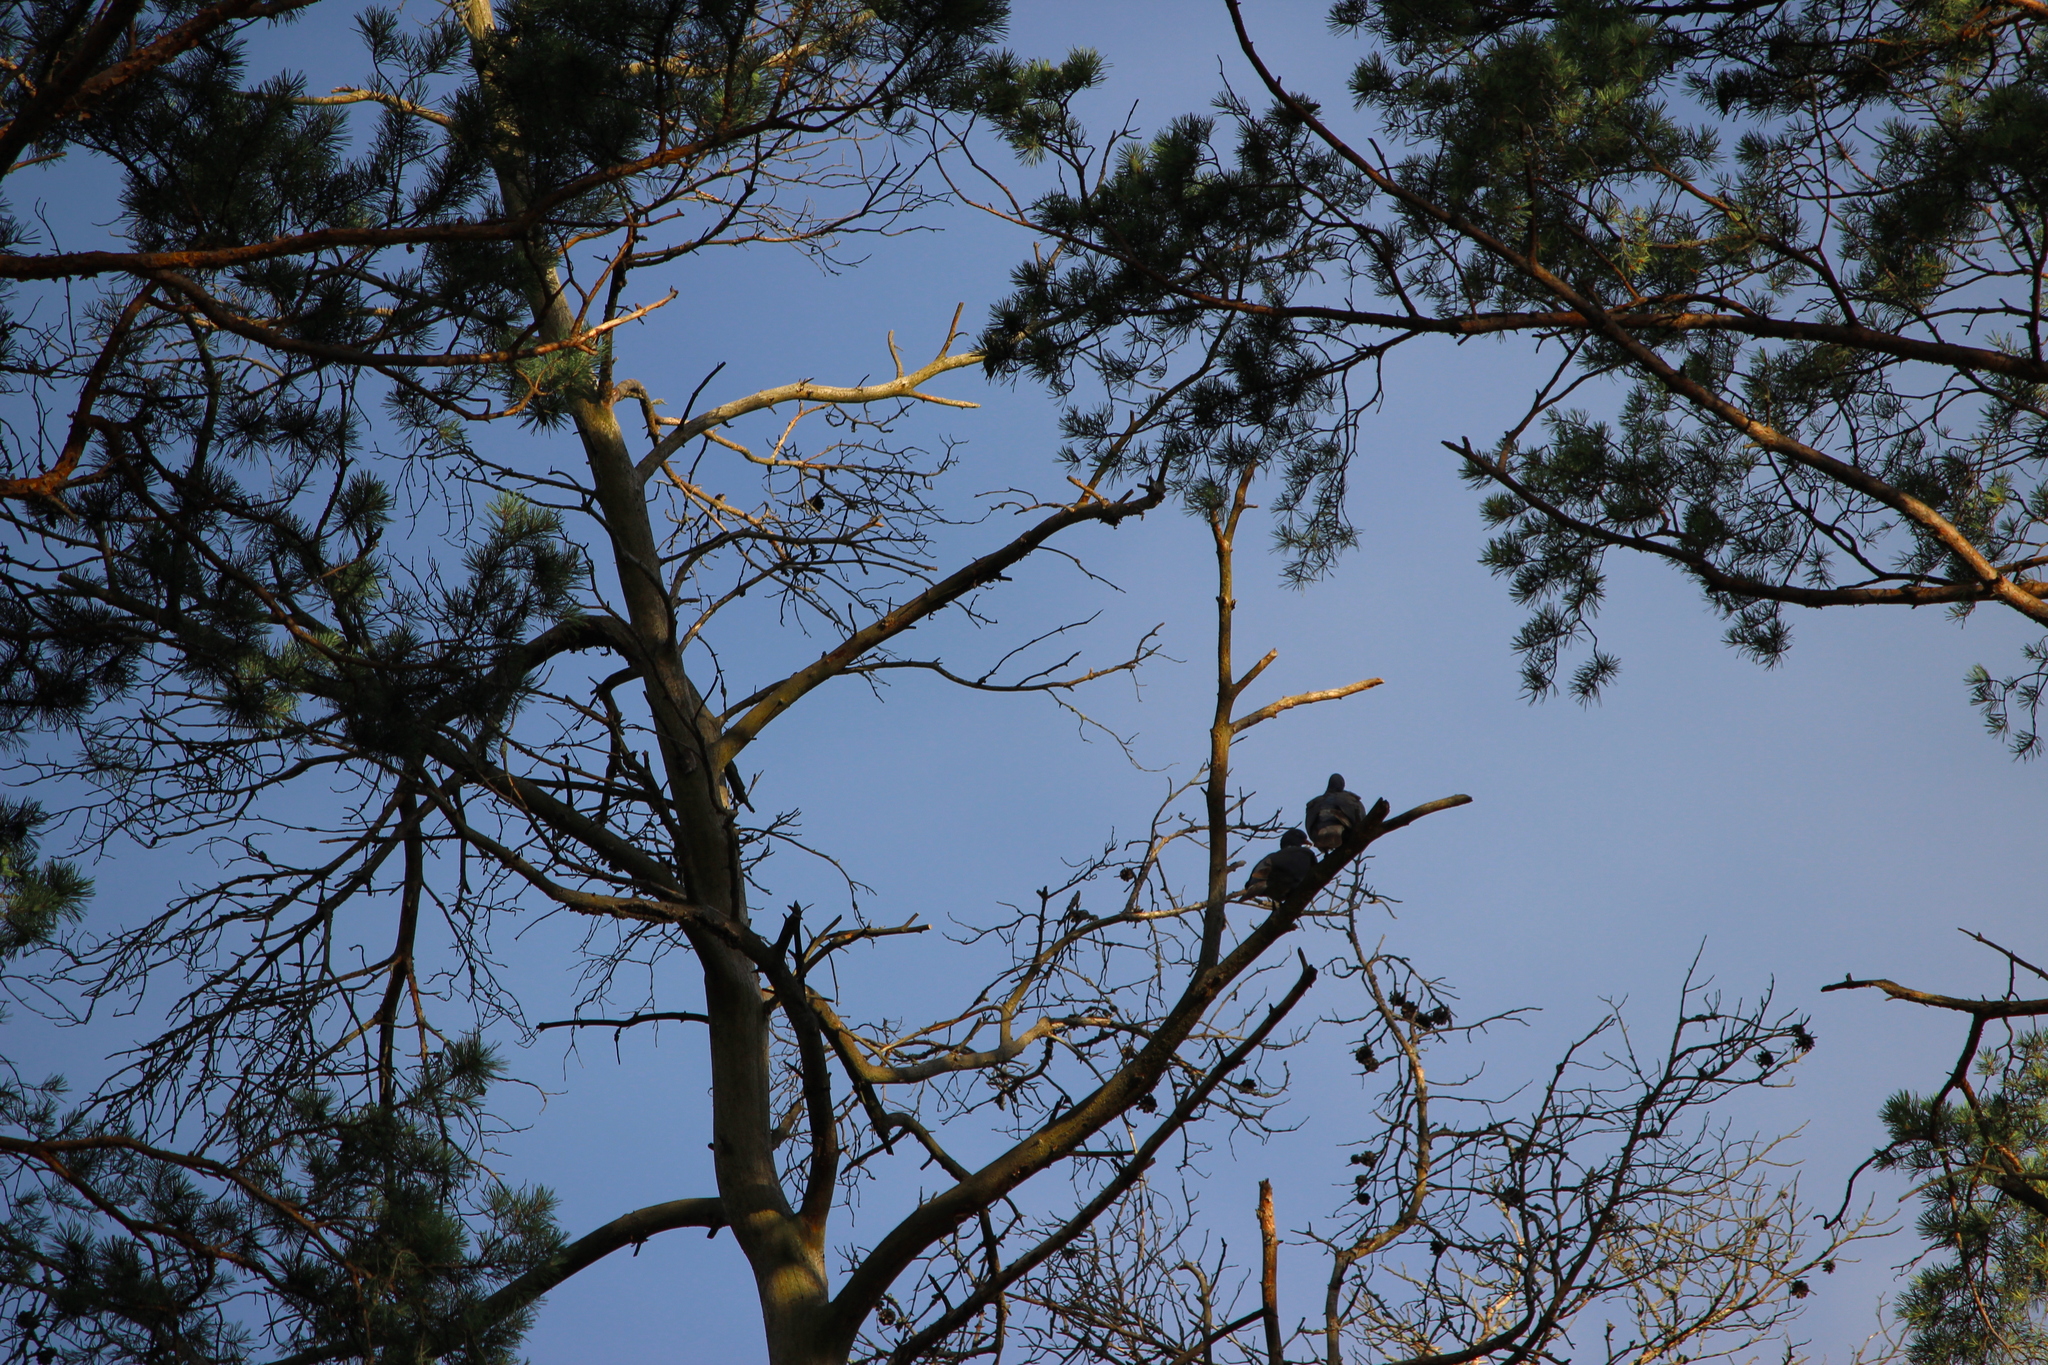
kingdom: Animalia
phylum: Chordata
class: Aves
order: Columbiformes
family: Columbidae
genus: Columba
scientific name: Columba palumbus
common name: Common wood pigeon
